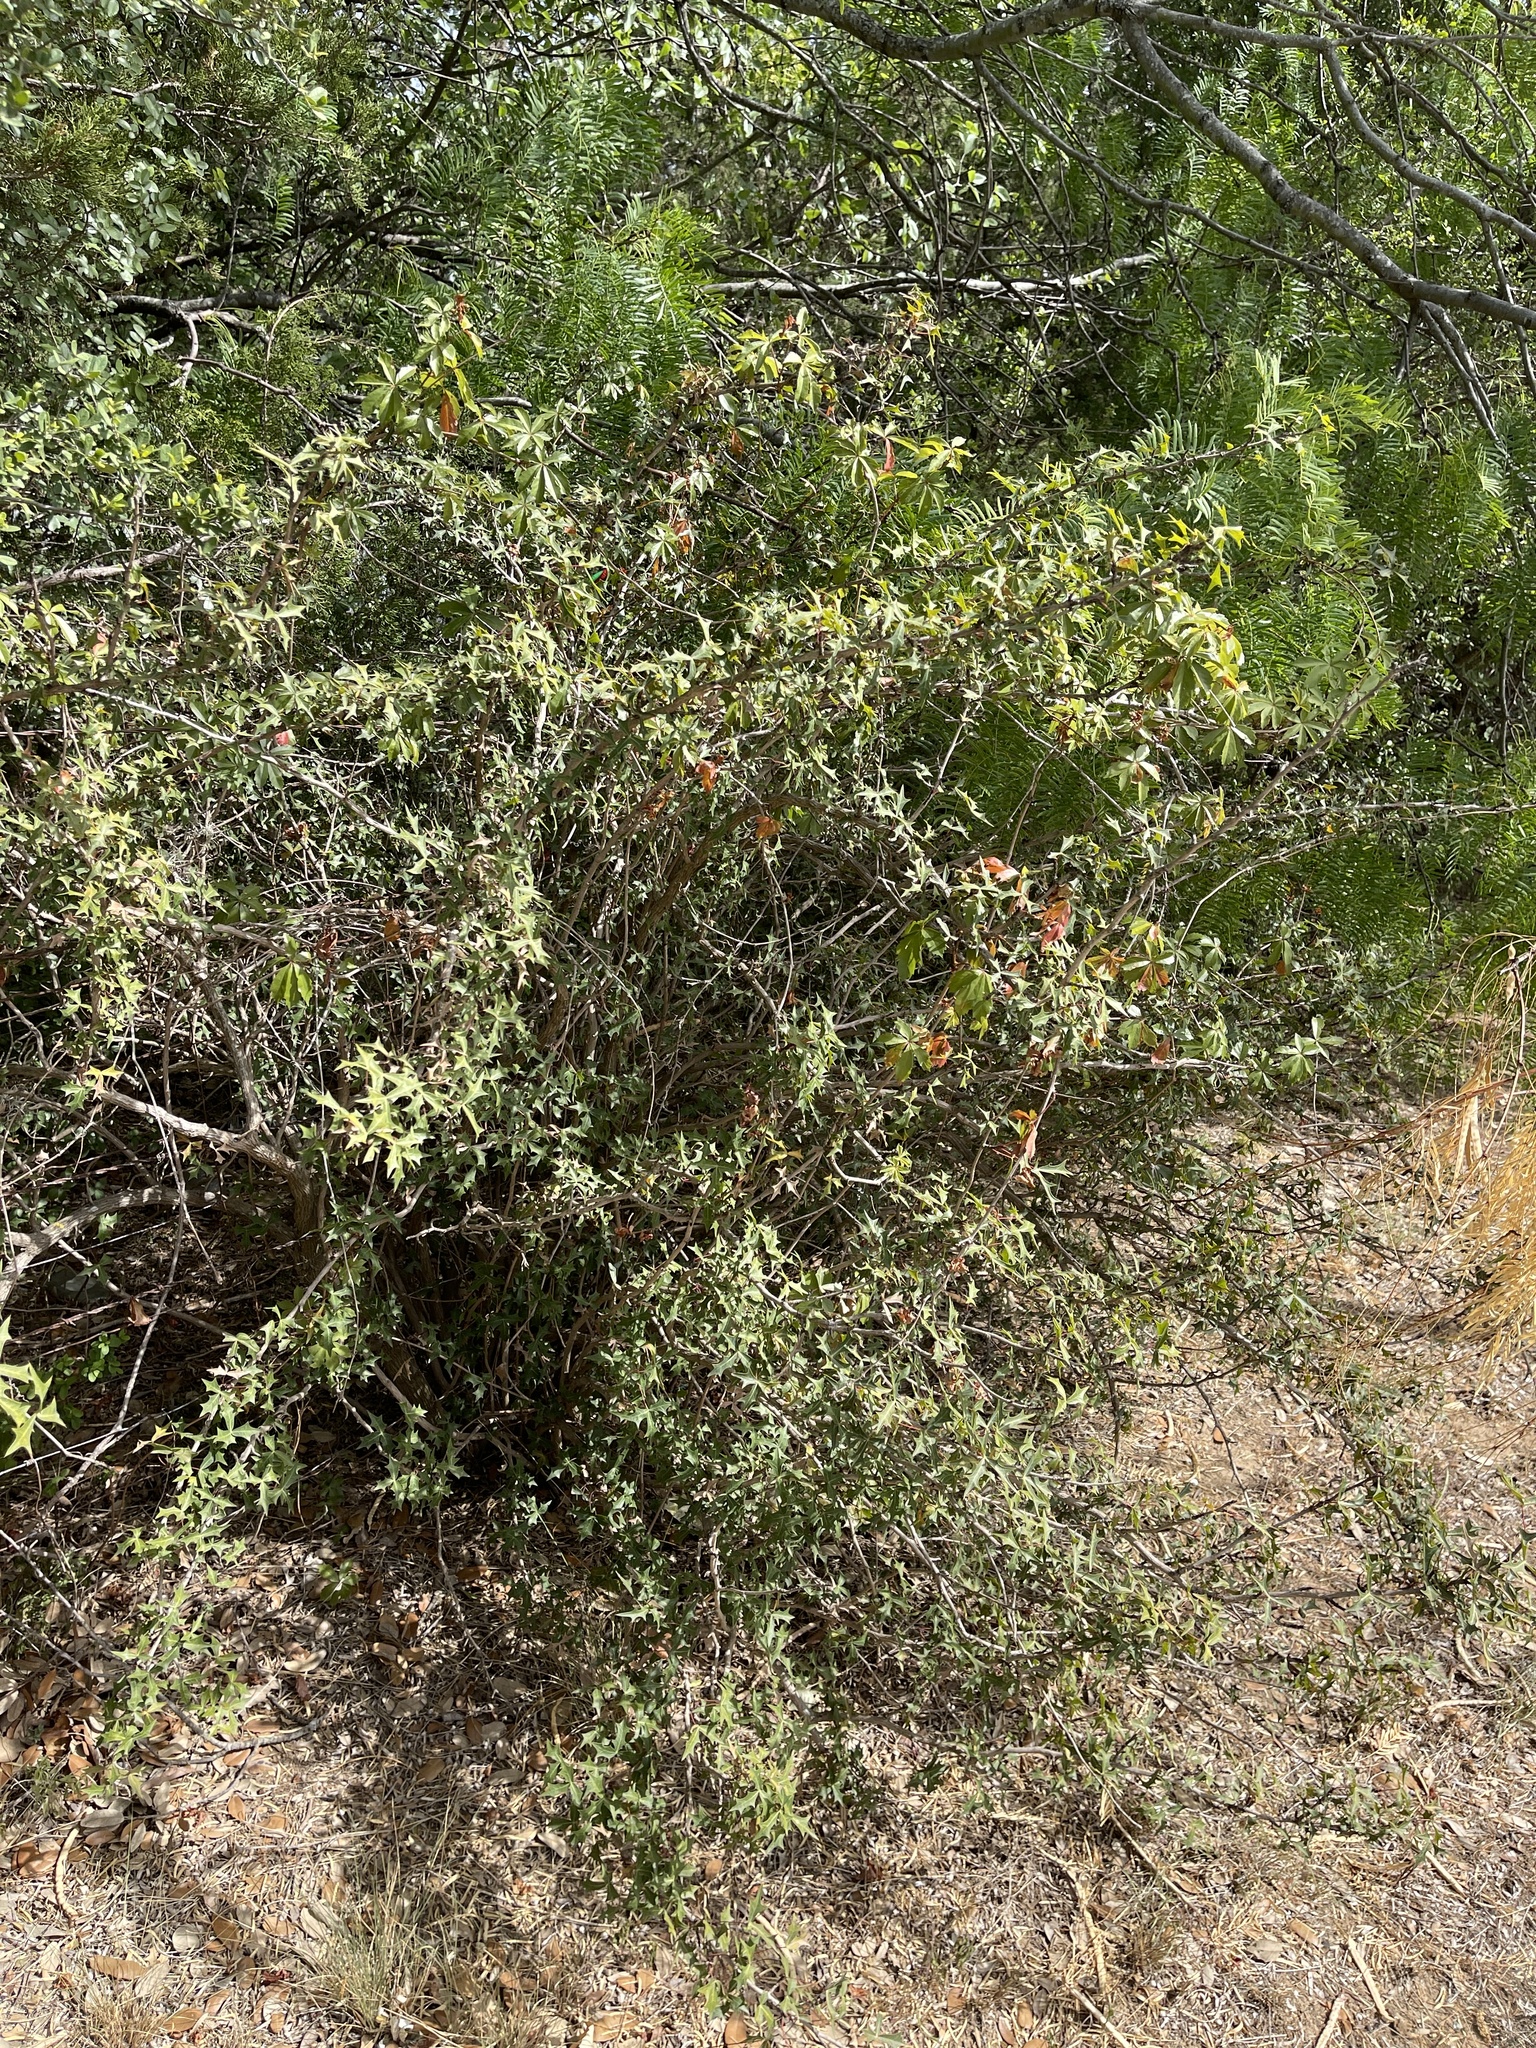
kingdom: Plantae
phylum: Tracheophyta
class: Magnoliopsida
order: Ranunculales
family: Berberidaceae
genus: Alloberberis
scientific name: Alloberberis trifoliolata
